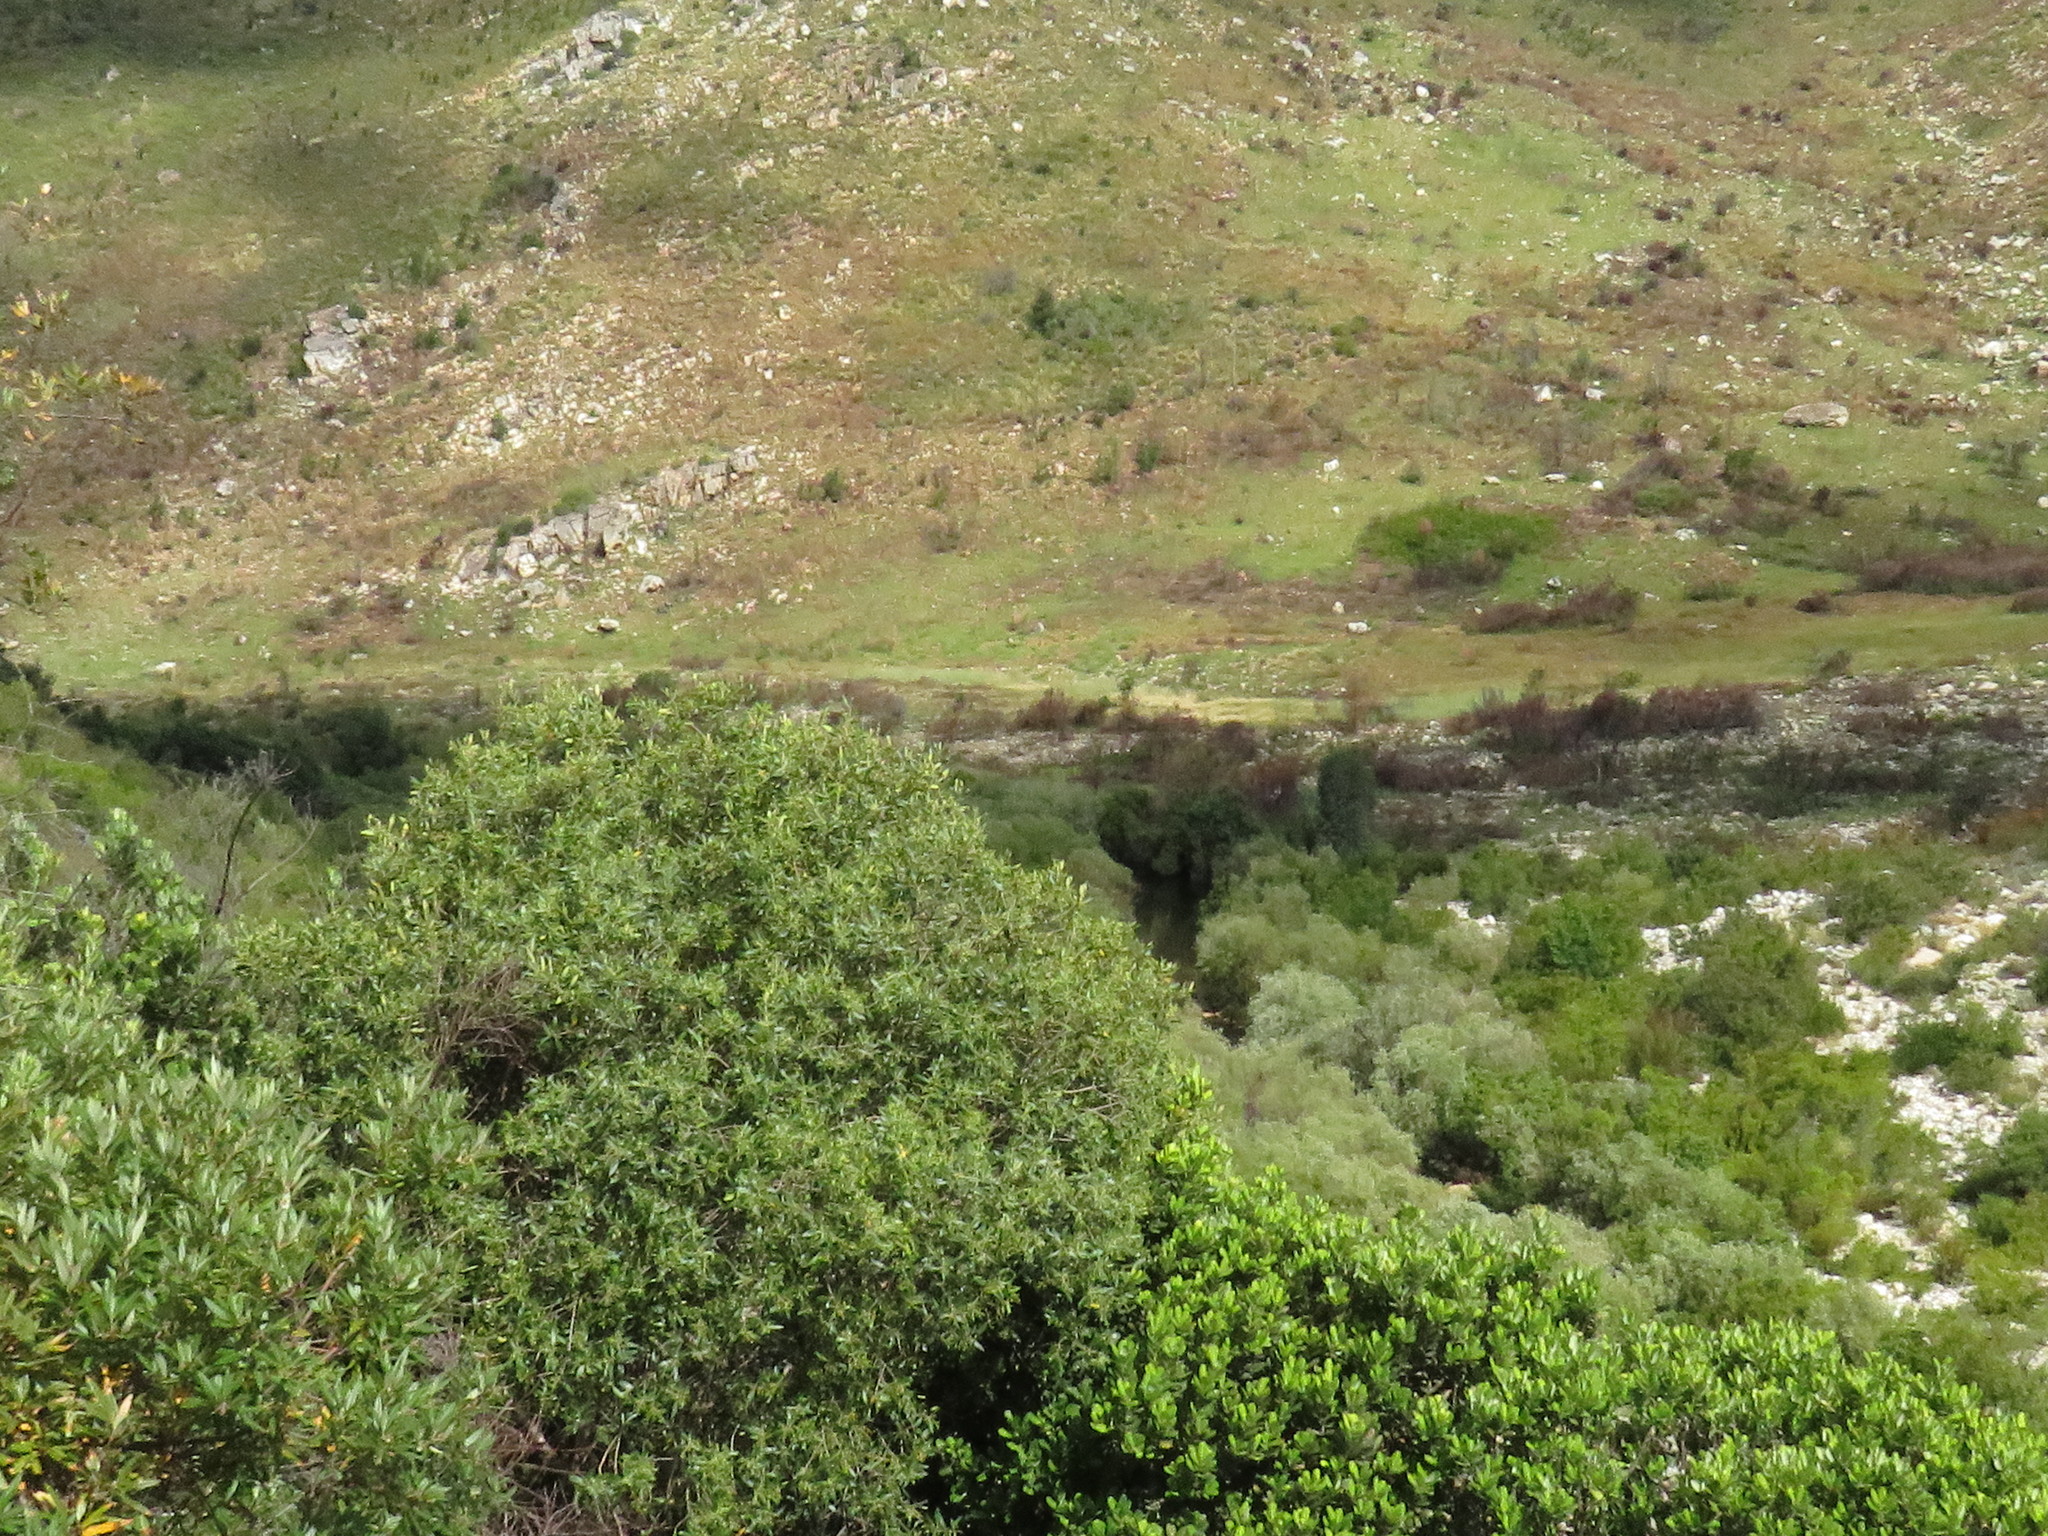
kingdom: Animalia
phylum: Chordata
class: Mammalia
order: Carnivora
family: Felidae
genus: Caracal
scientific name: Caracal caracal
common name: Caracal
